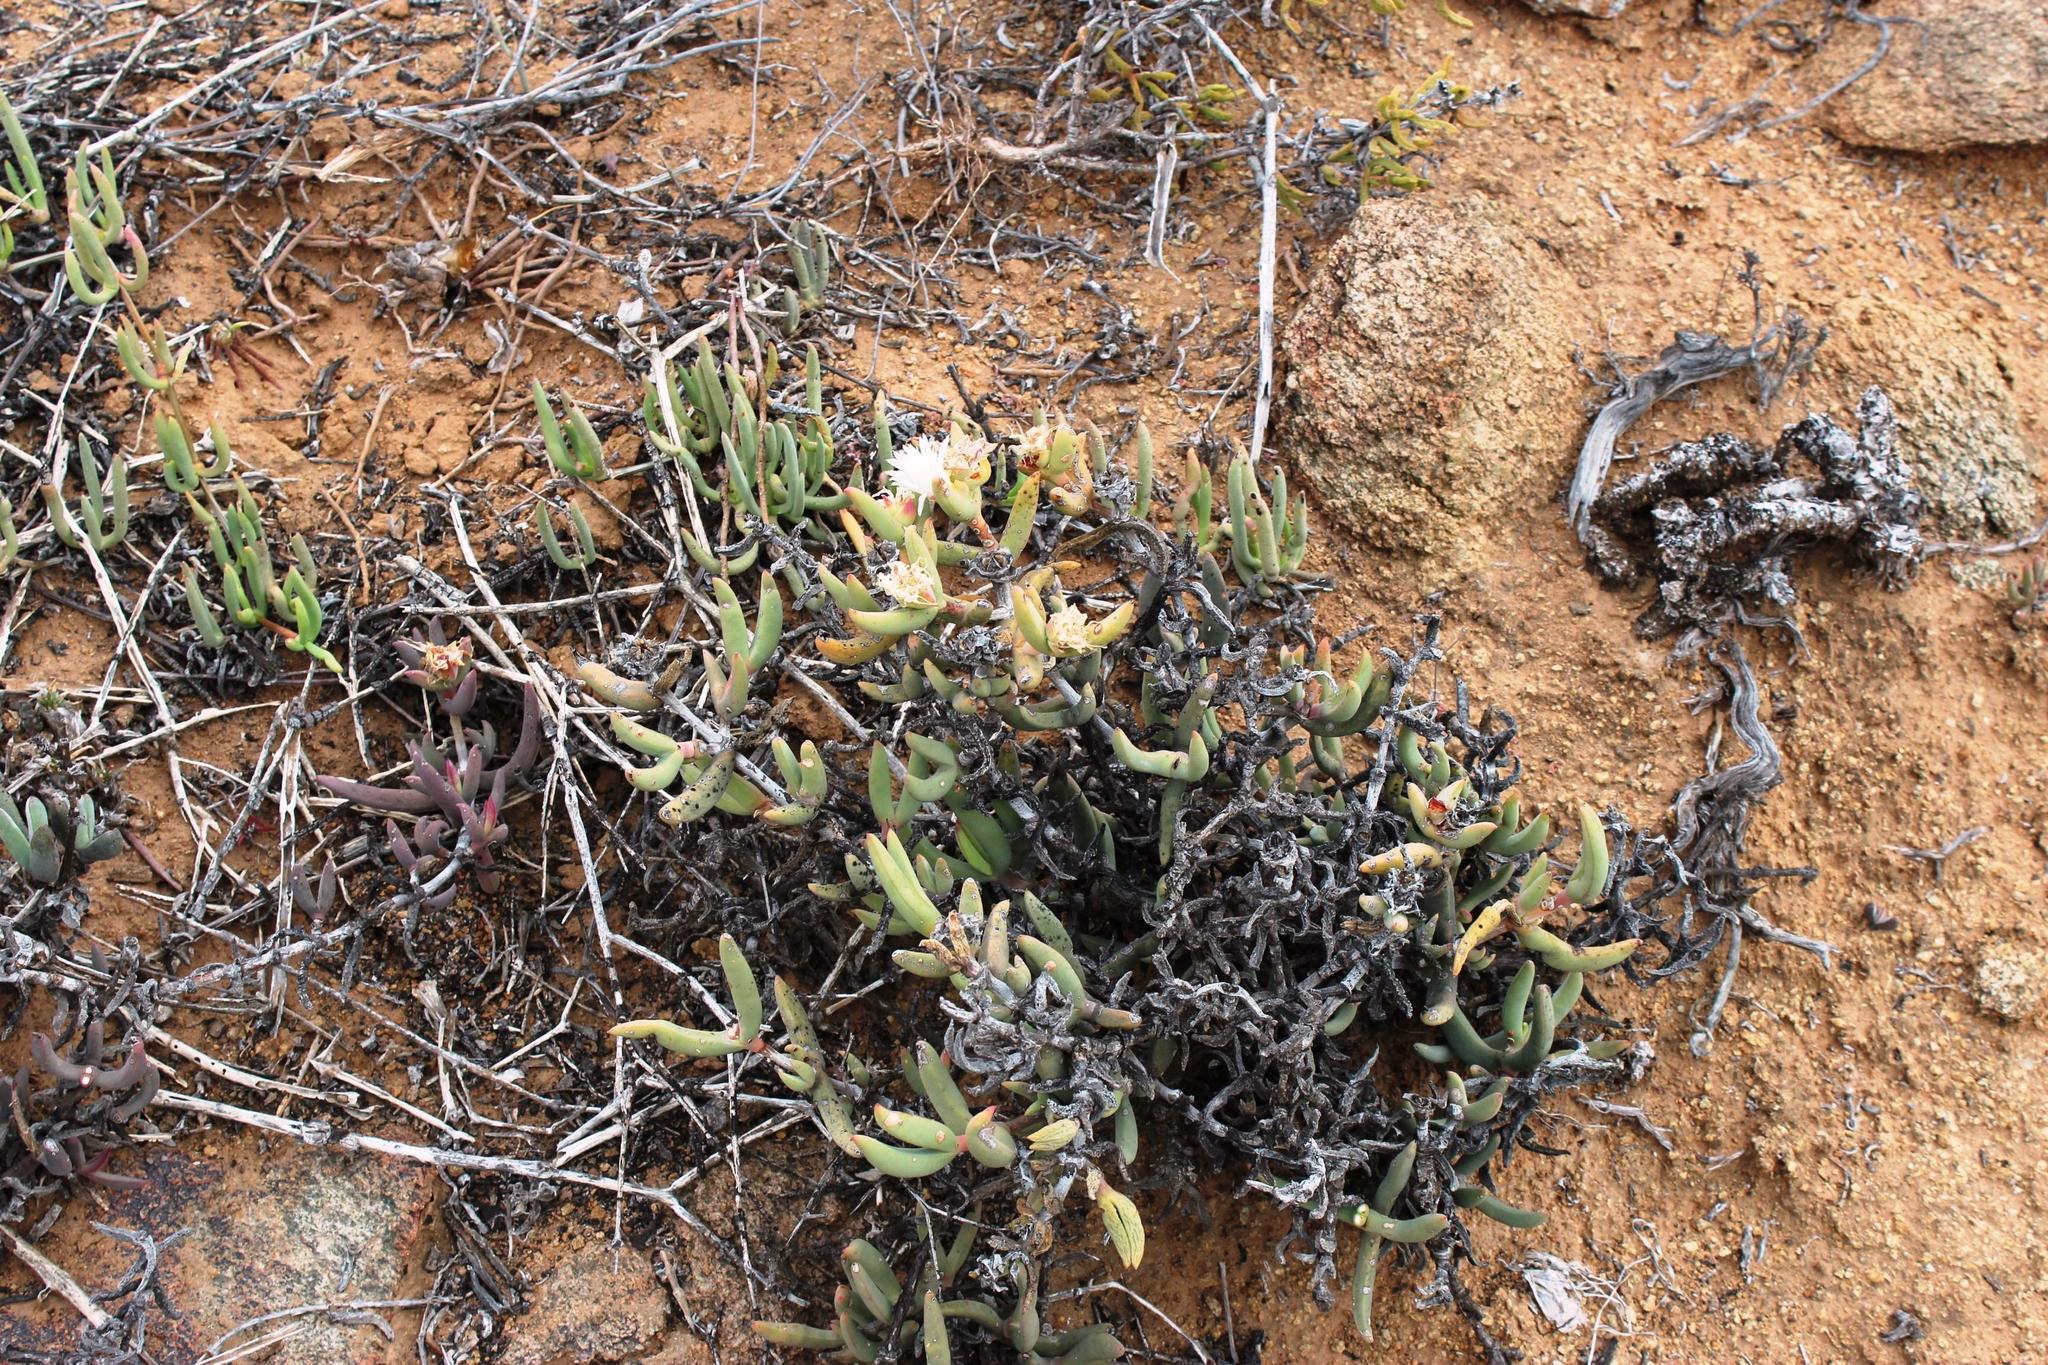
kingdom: Plantae
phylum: Tracheophyta
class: Magnoliopsida
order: Caryophyllales
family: Aizoaceae
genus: Astridia
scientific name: Astridia longifolia
